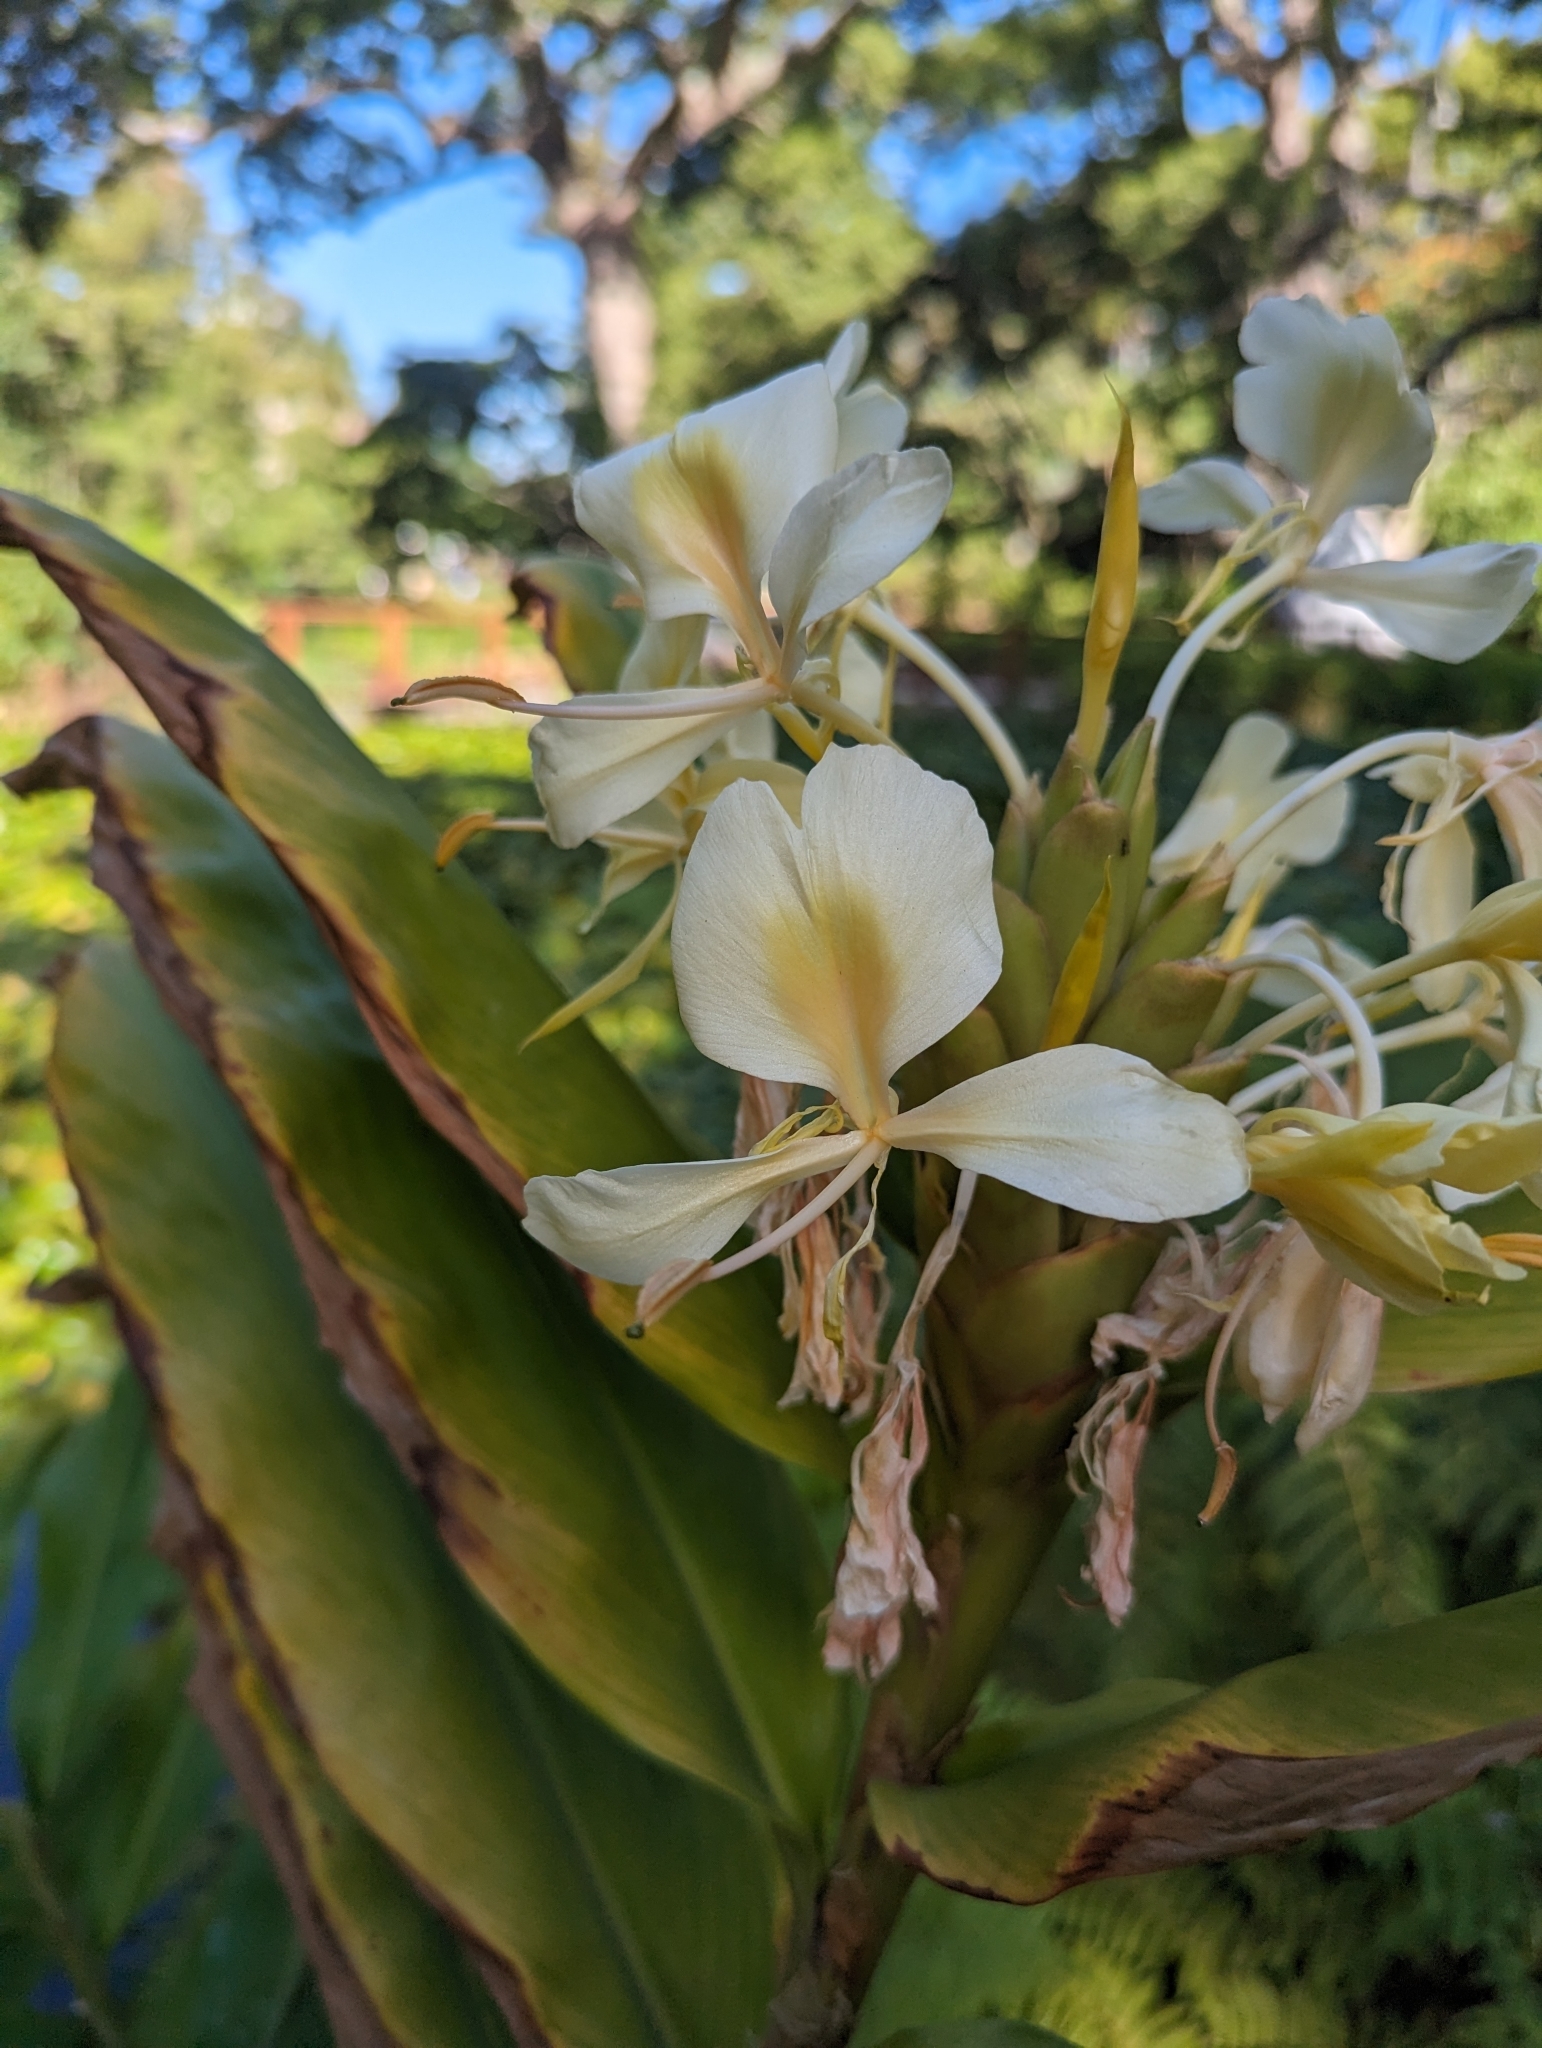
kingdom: Plantae
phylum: Tracheophyta
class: Liliopsida
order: Zingiberales
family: Zingiberaceae
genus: Hedychium
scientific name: Hedychium flavescens
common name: Yellow ginger
